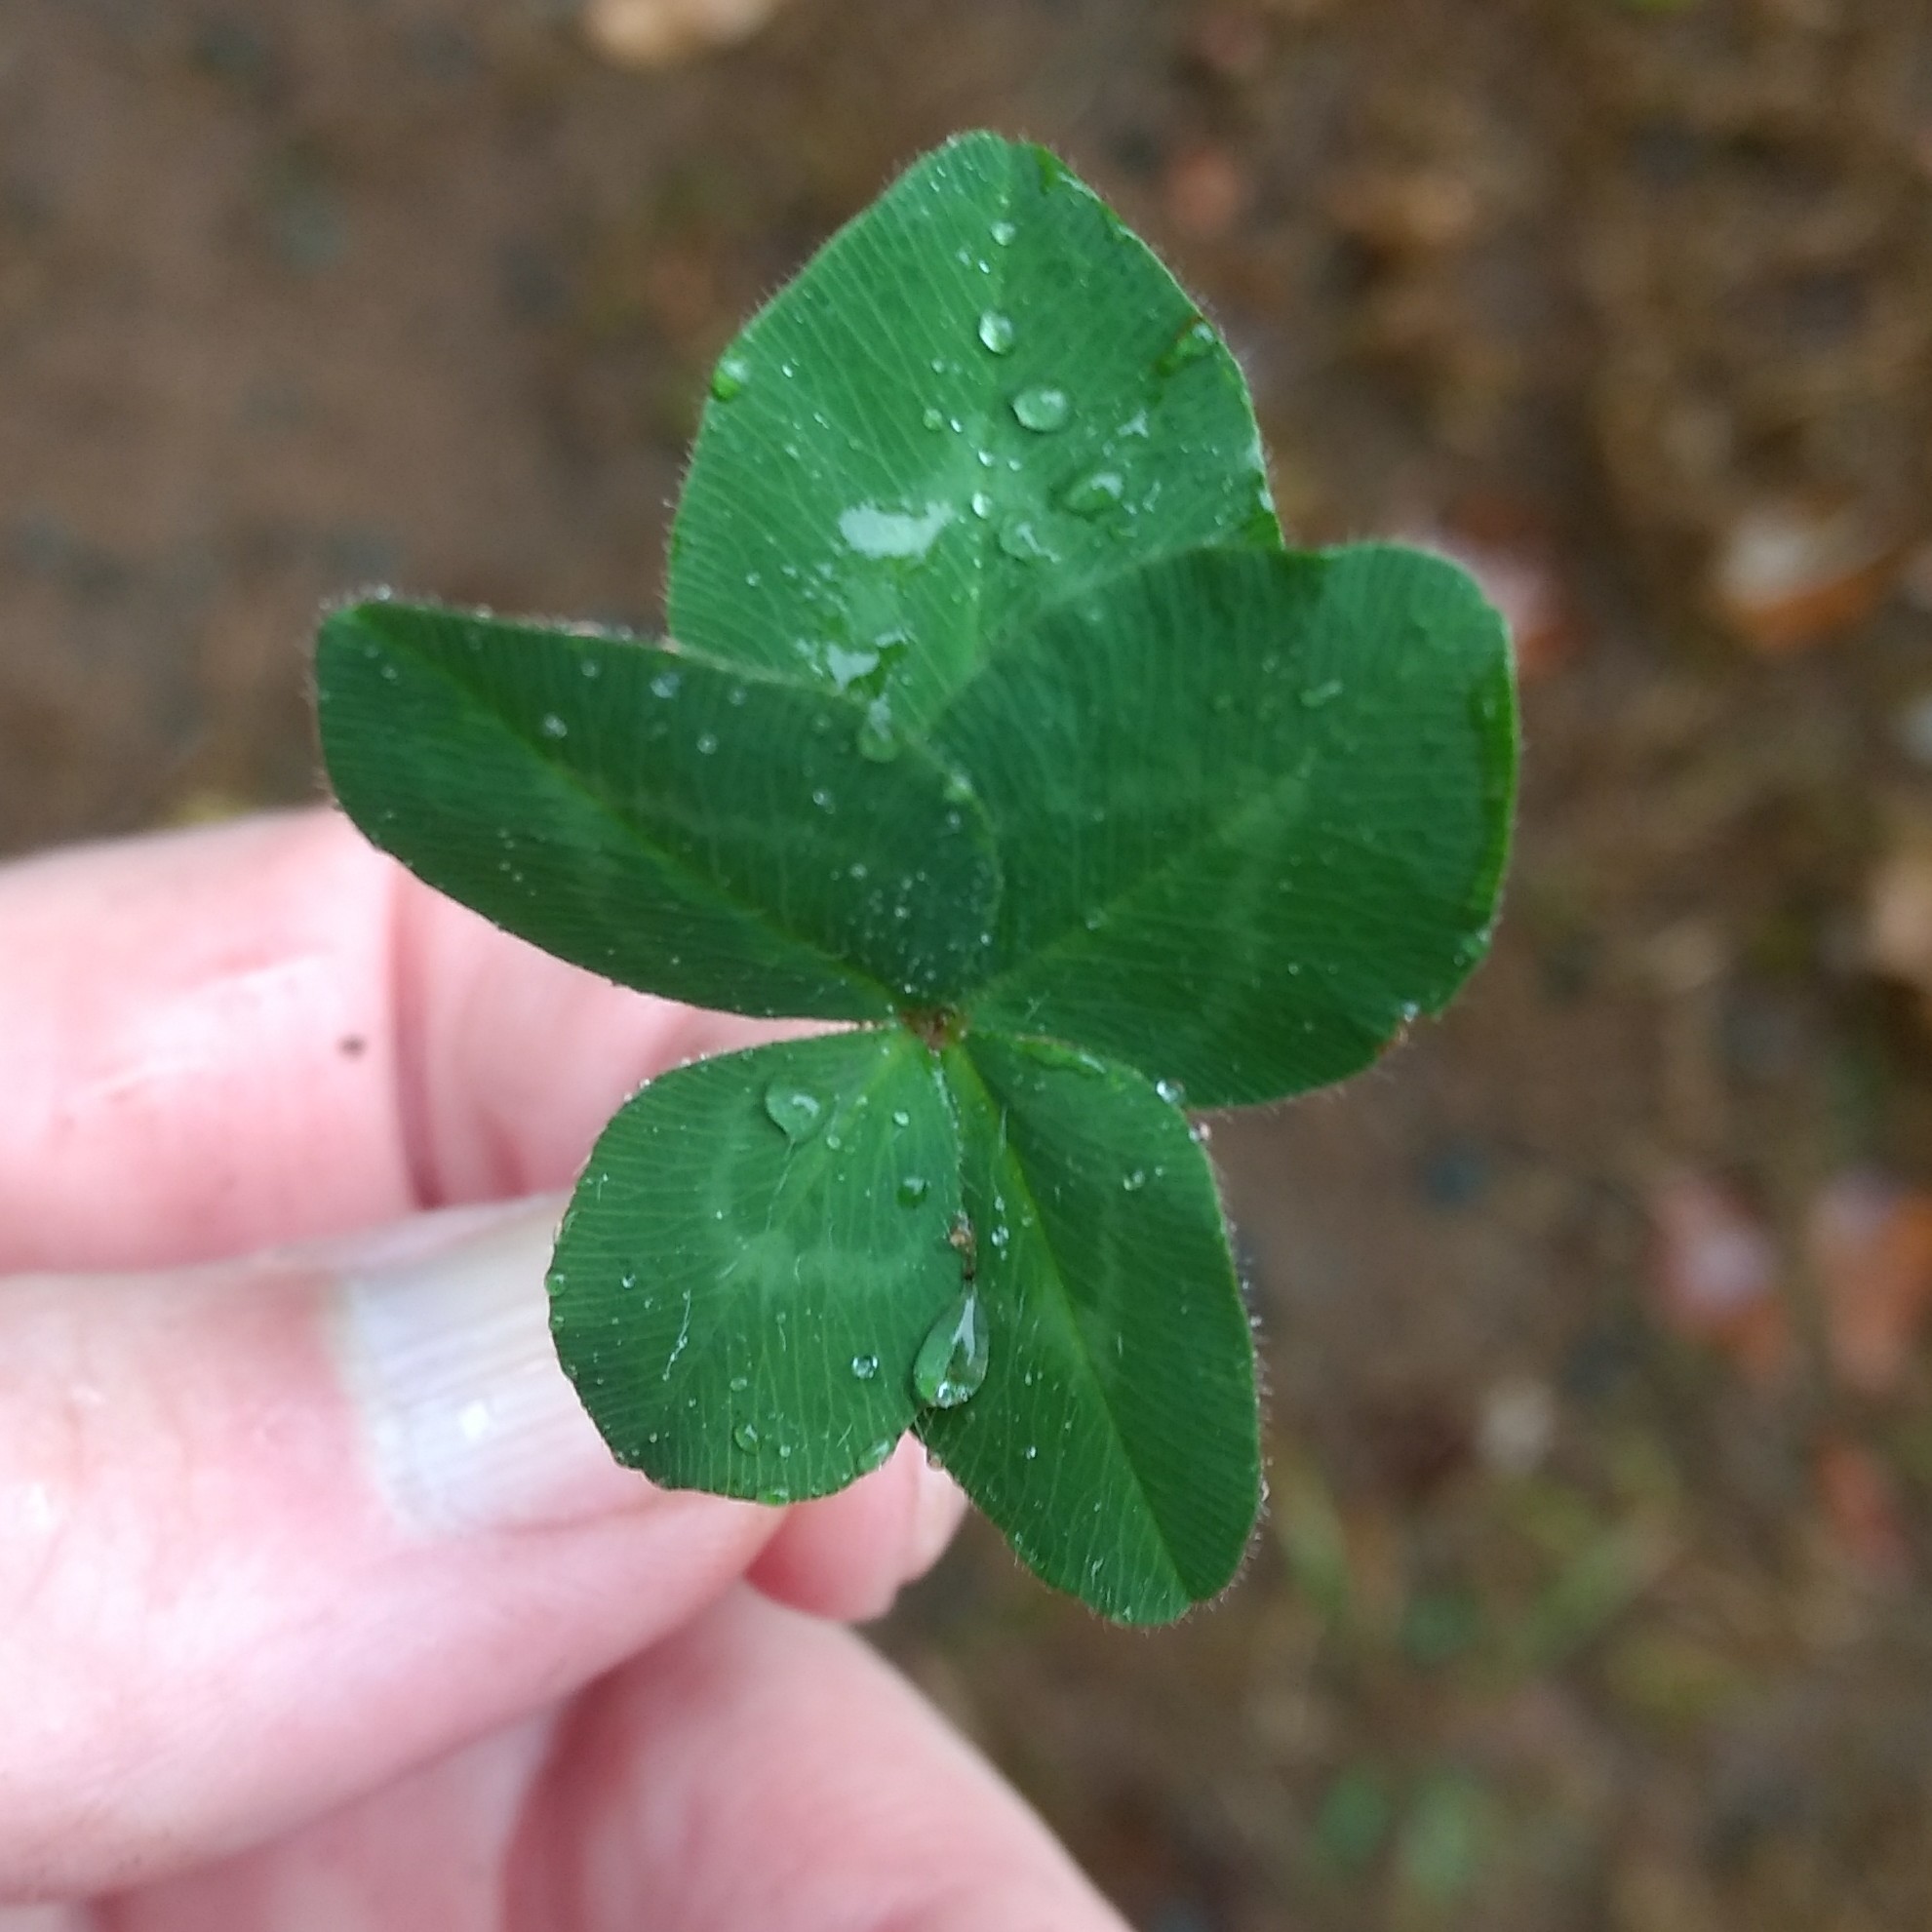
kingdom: Plantae
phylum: Tracheophyta
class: Magnoliopsida
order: Fabales
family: Fabaceae
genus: Trifolium
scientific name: Trifolium pratense
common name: Red clover
